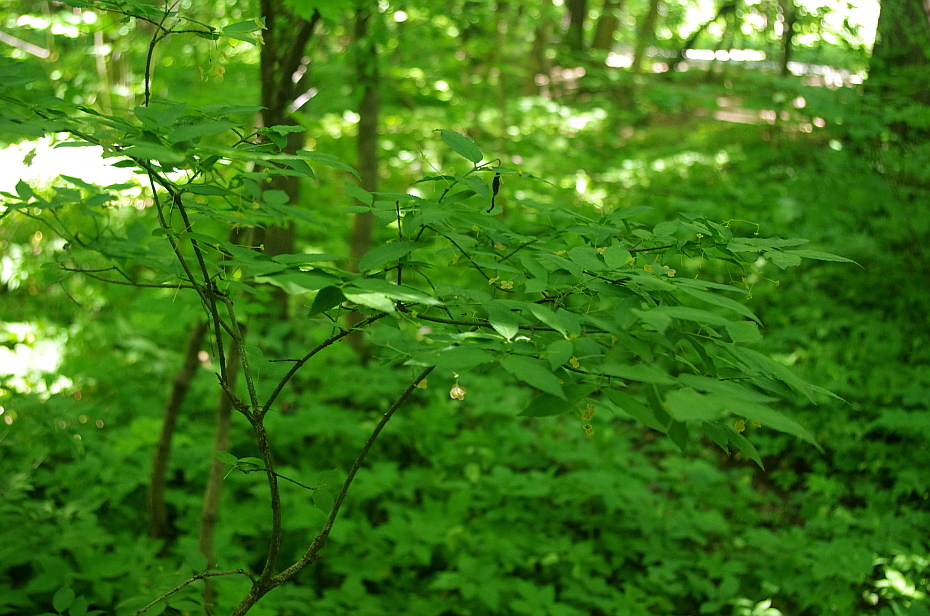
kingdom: Plantae
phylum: Tracheophyta
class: Magnoliopsida
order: Celastrales
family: Celastraceae
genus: Euonymus
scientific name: Euonymus verrucosus
